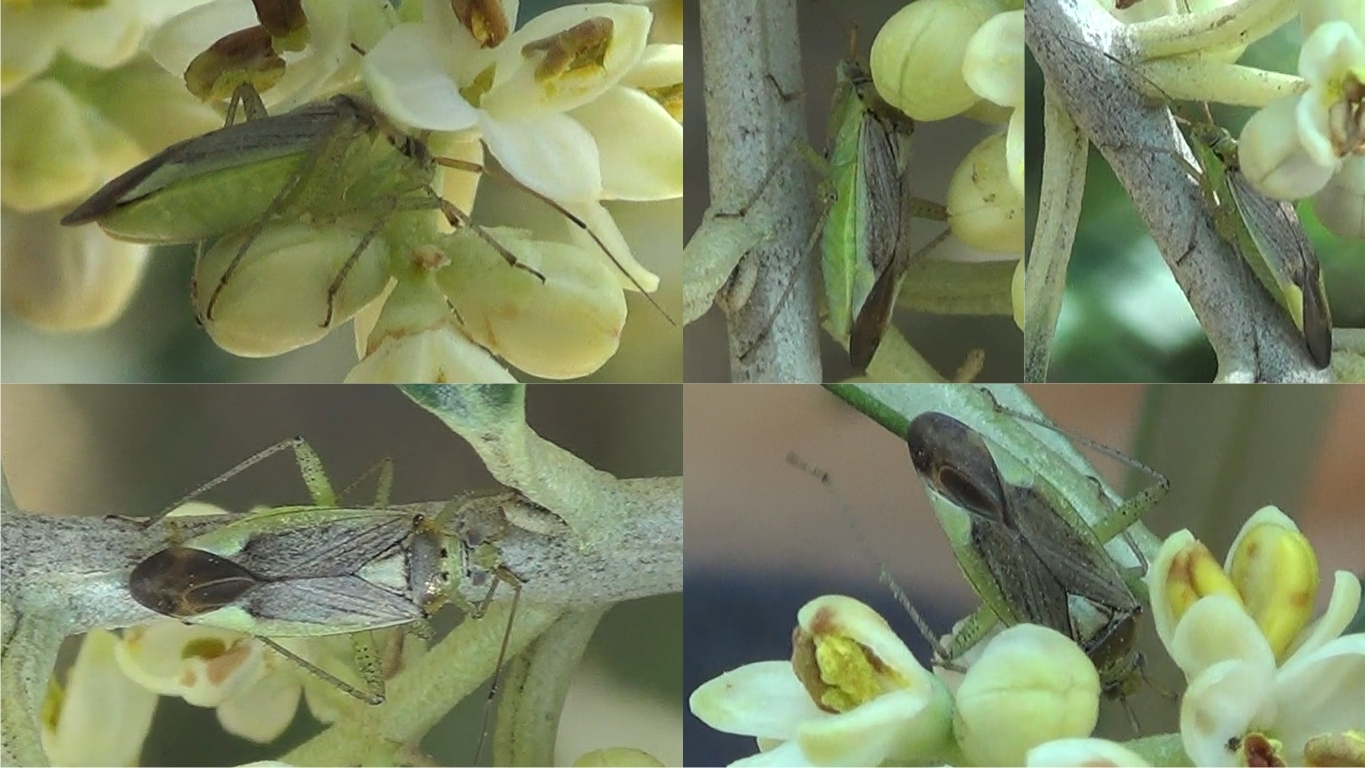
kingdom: Animalia
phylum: Arthropoda
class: Insecta
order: Hemiptera
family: Miridae
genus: Closterotomus
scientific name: Closterotomus trivialis
